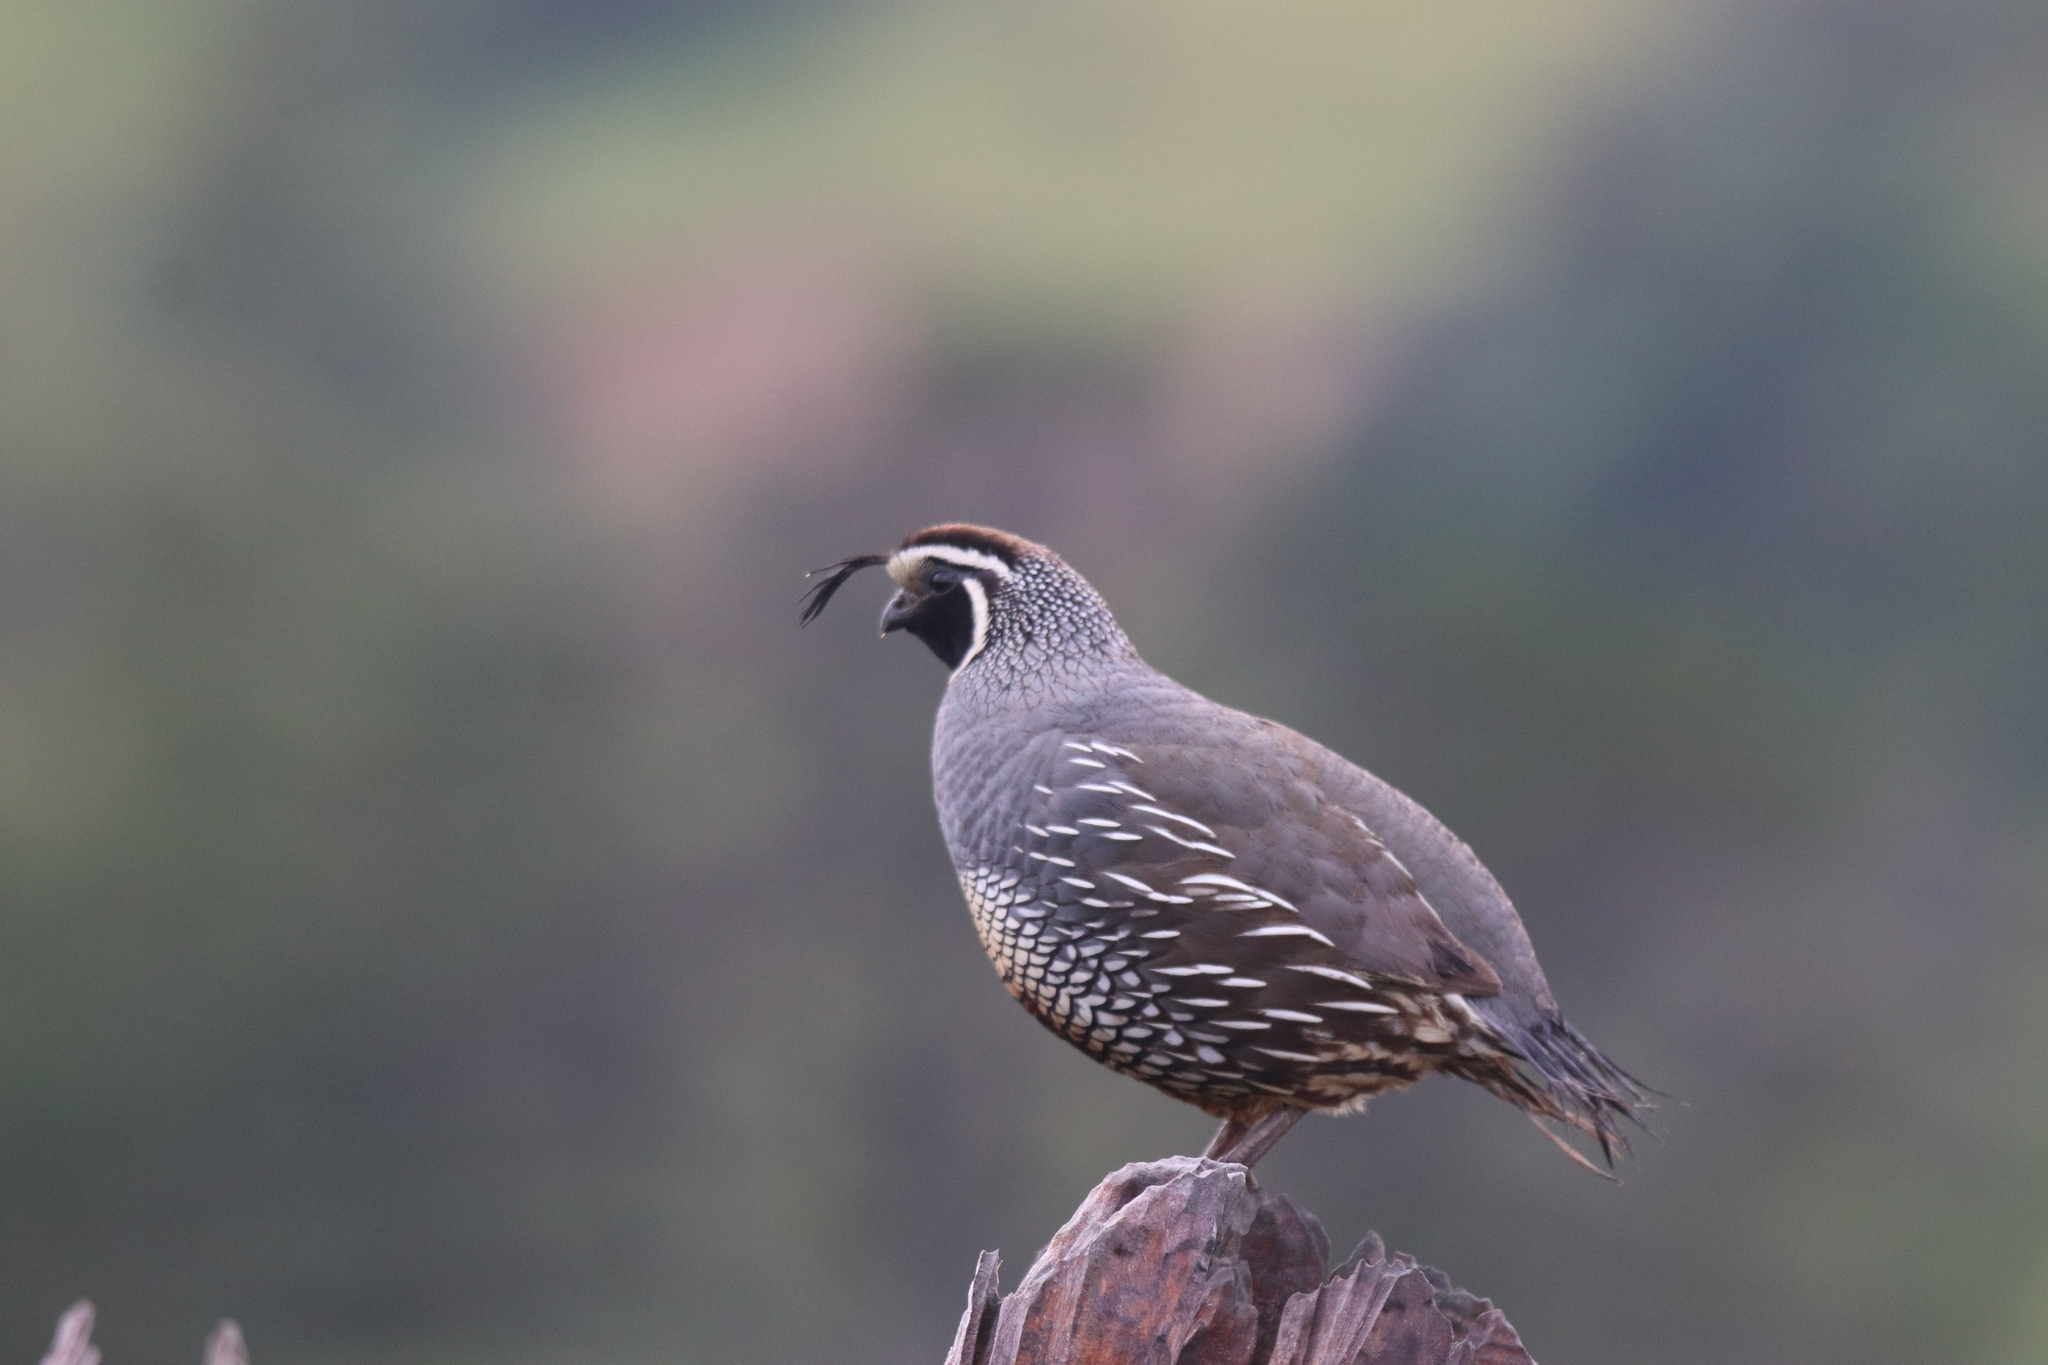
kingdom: Animalia
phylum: Chordata
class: Aves
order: Galliformes
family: Odontophoridae
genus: Callipepla
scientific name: Callipepla californica
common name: California quail
